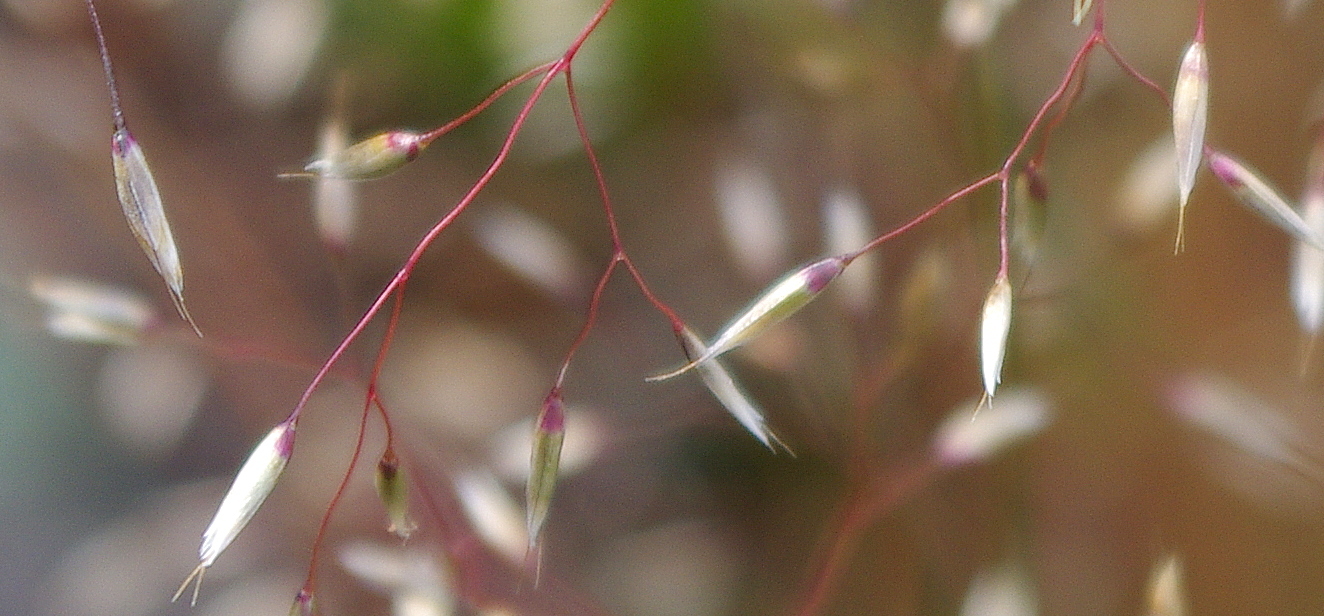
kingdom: Plantae
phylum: Tracheophyta
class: Liliopsida
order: Poales
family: Poaceae
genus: Avenella
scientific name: Avenella flexuosa
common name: Wavy hairgrass
